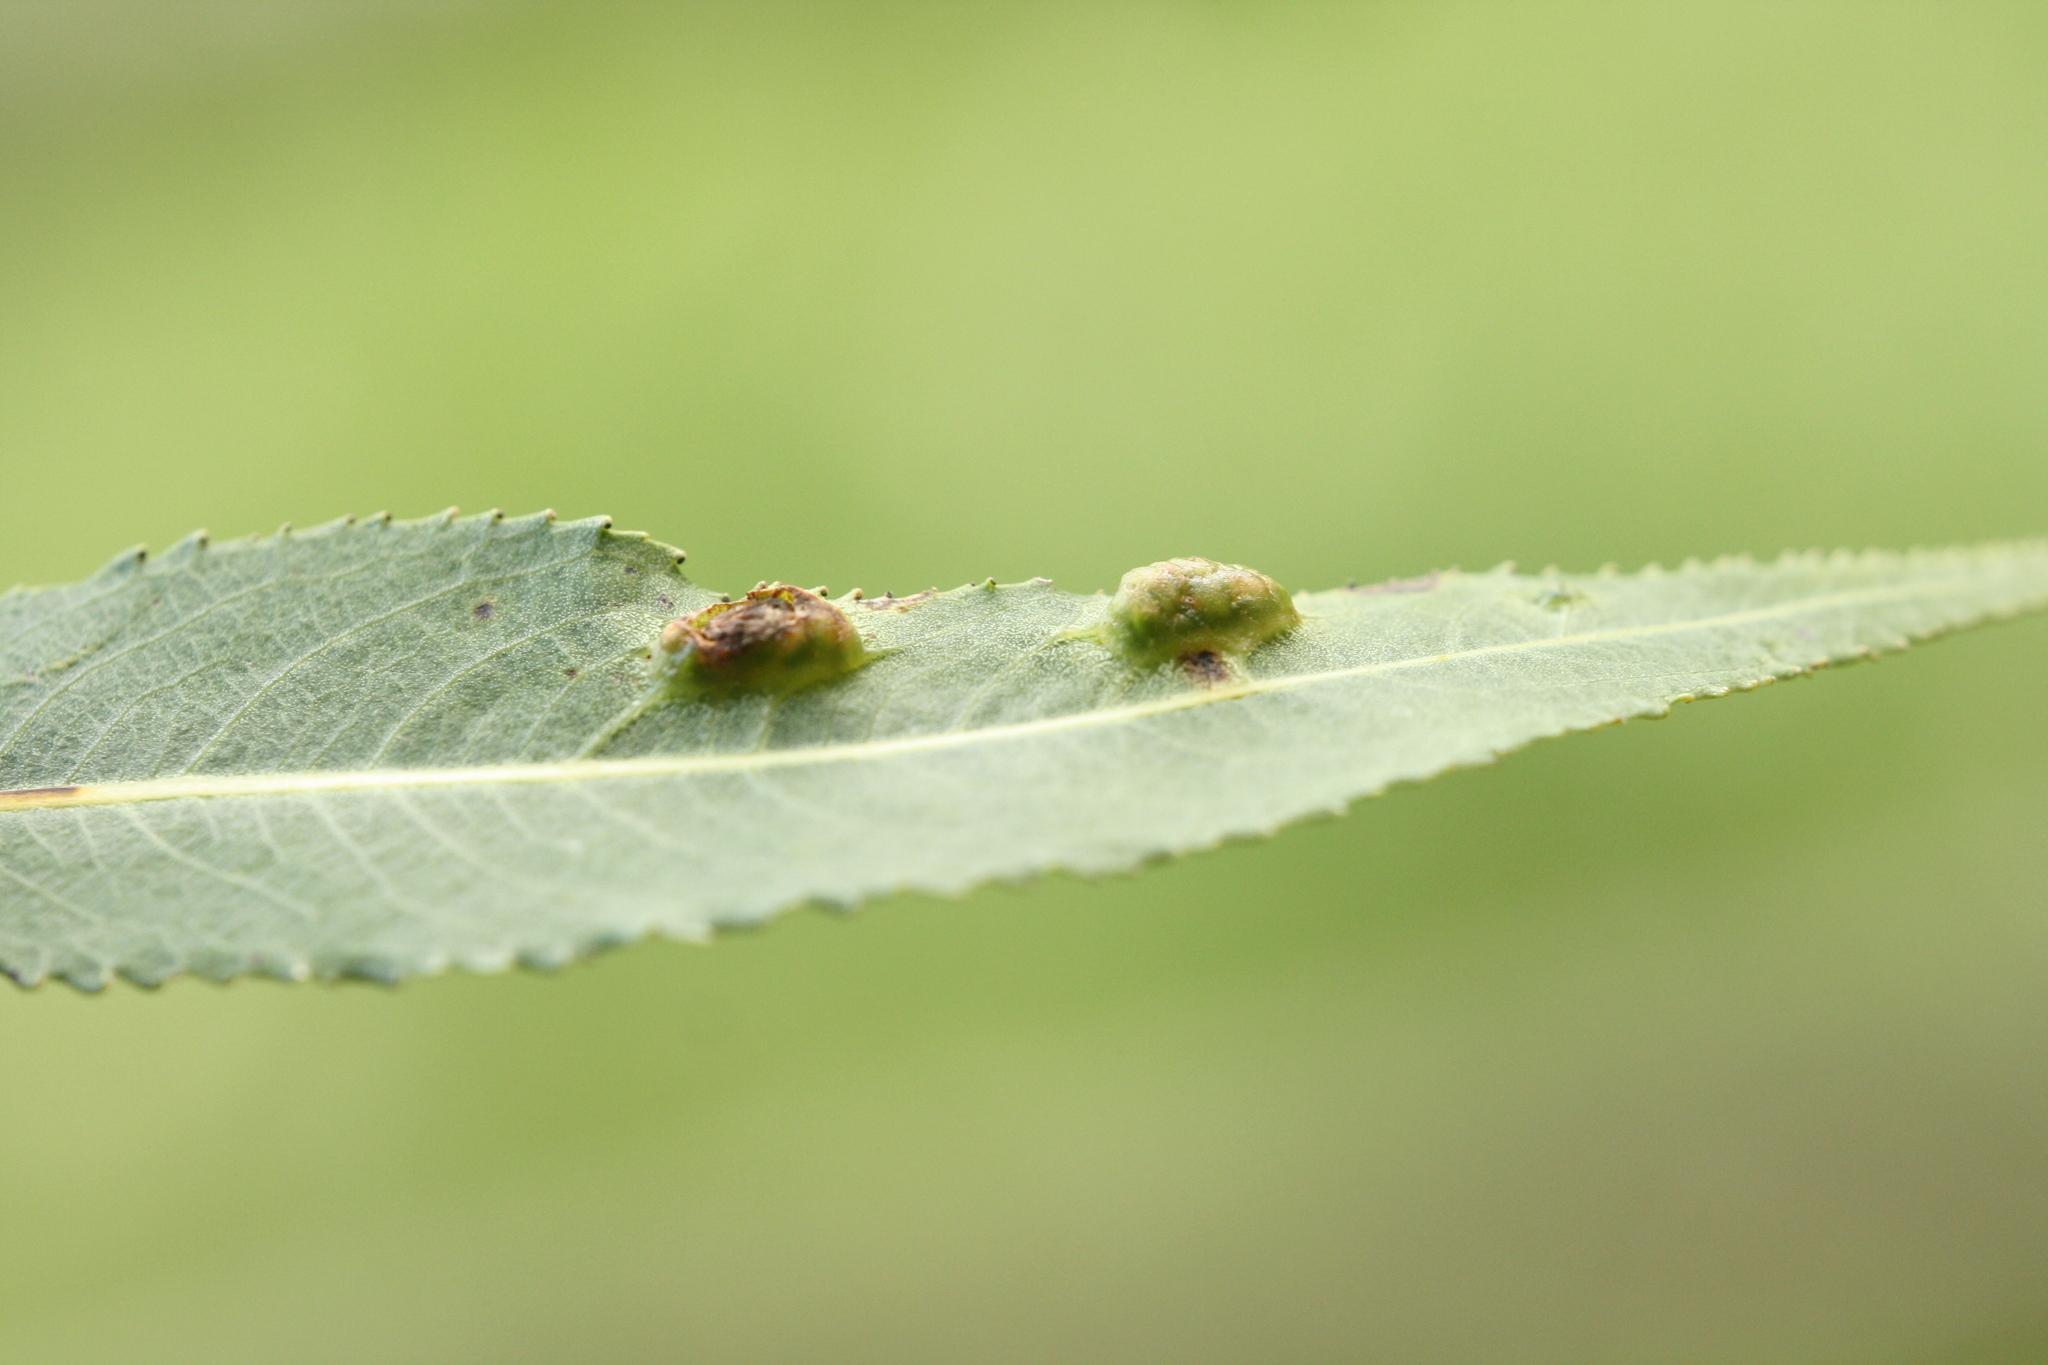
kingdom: Animalia
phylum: Arthropoda
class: Insecta
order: Hymenoptera
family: Tenthredinidae
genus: Pontania
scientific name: Pontania proxima
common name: Common sawfly
